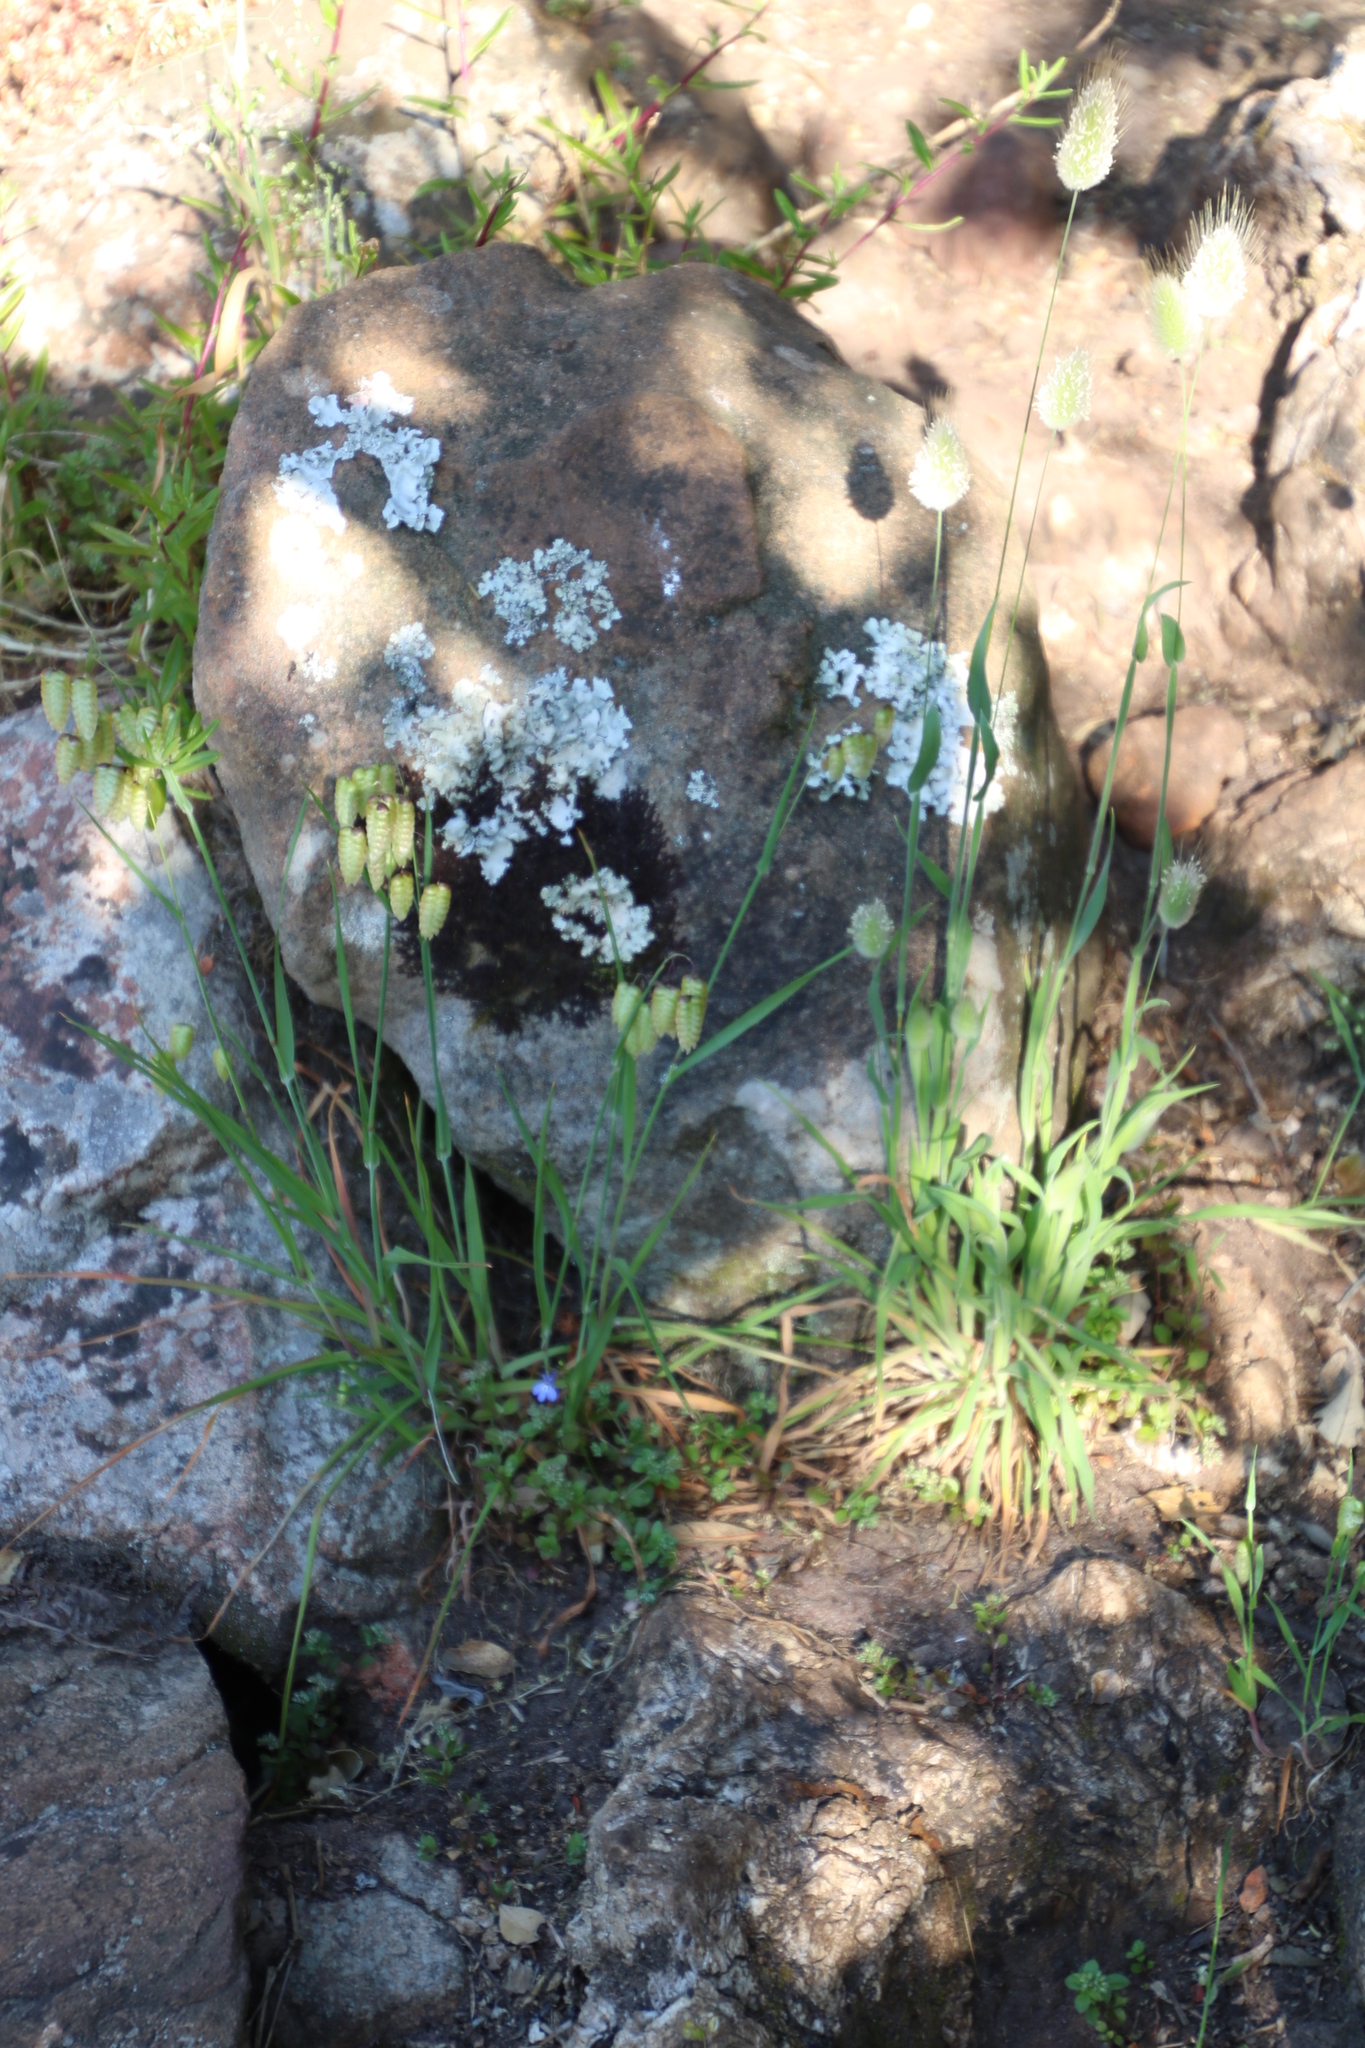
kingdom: Plantae
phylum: Tracheophyta
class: Liliopsida
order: Poales
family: Poaceae
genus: Briza
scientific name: Briza maxima
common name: Big quakinggrass
